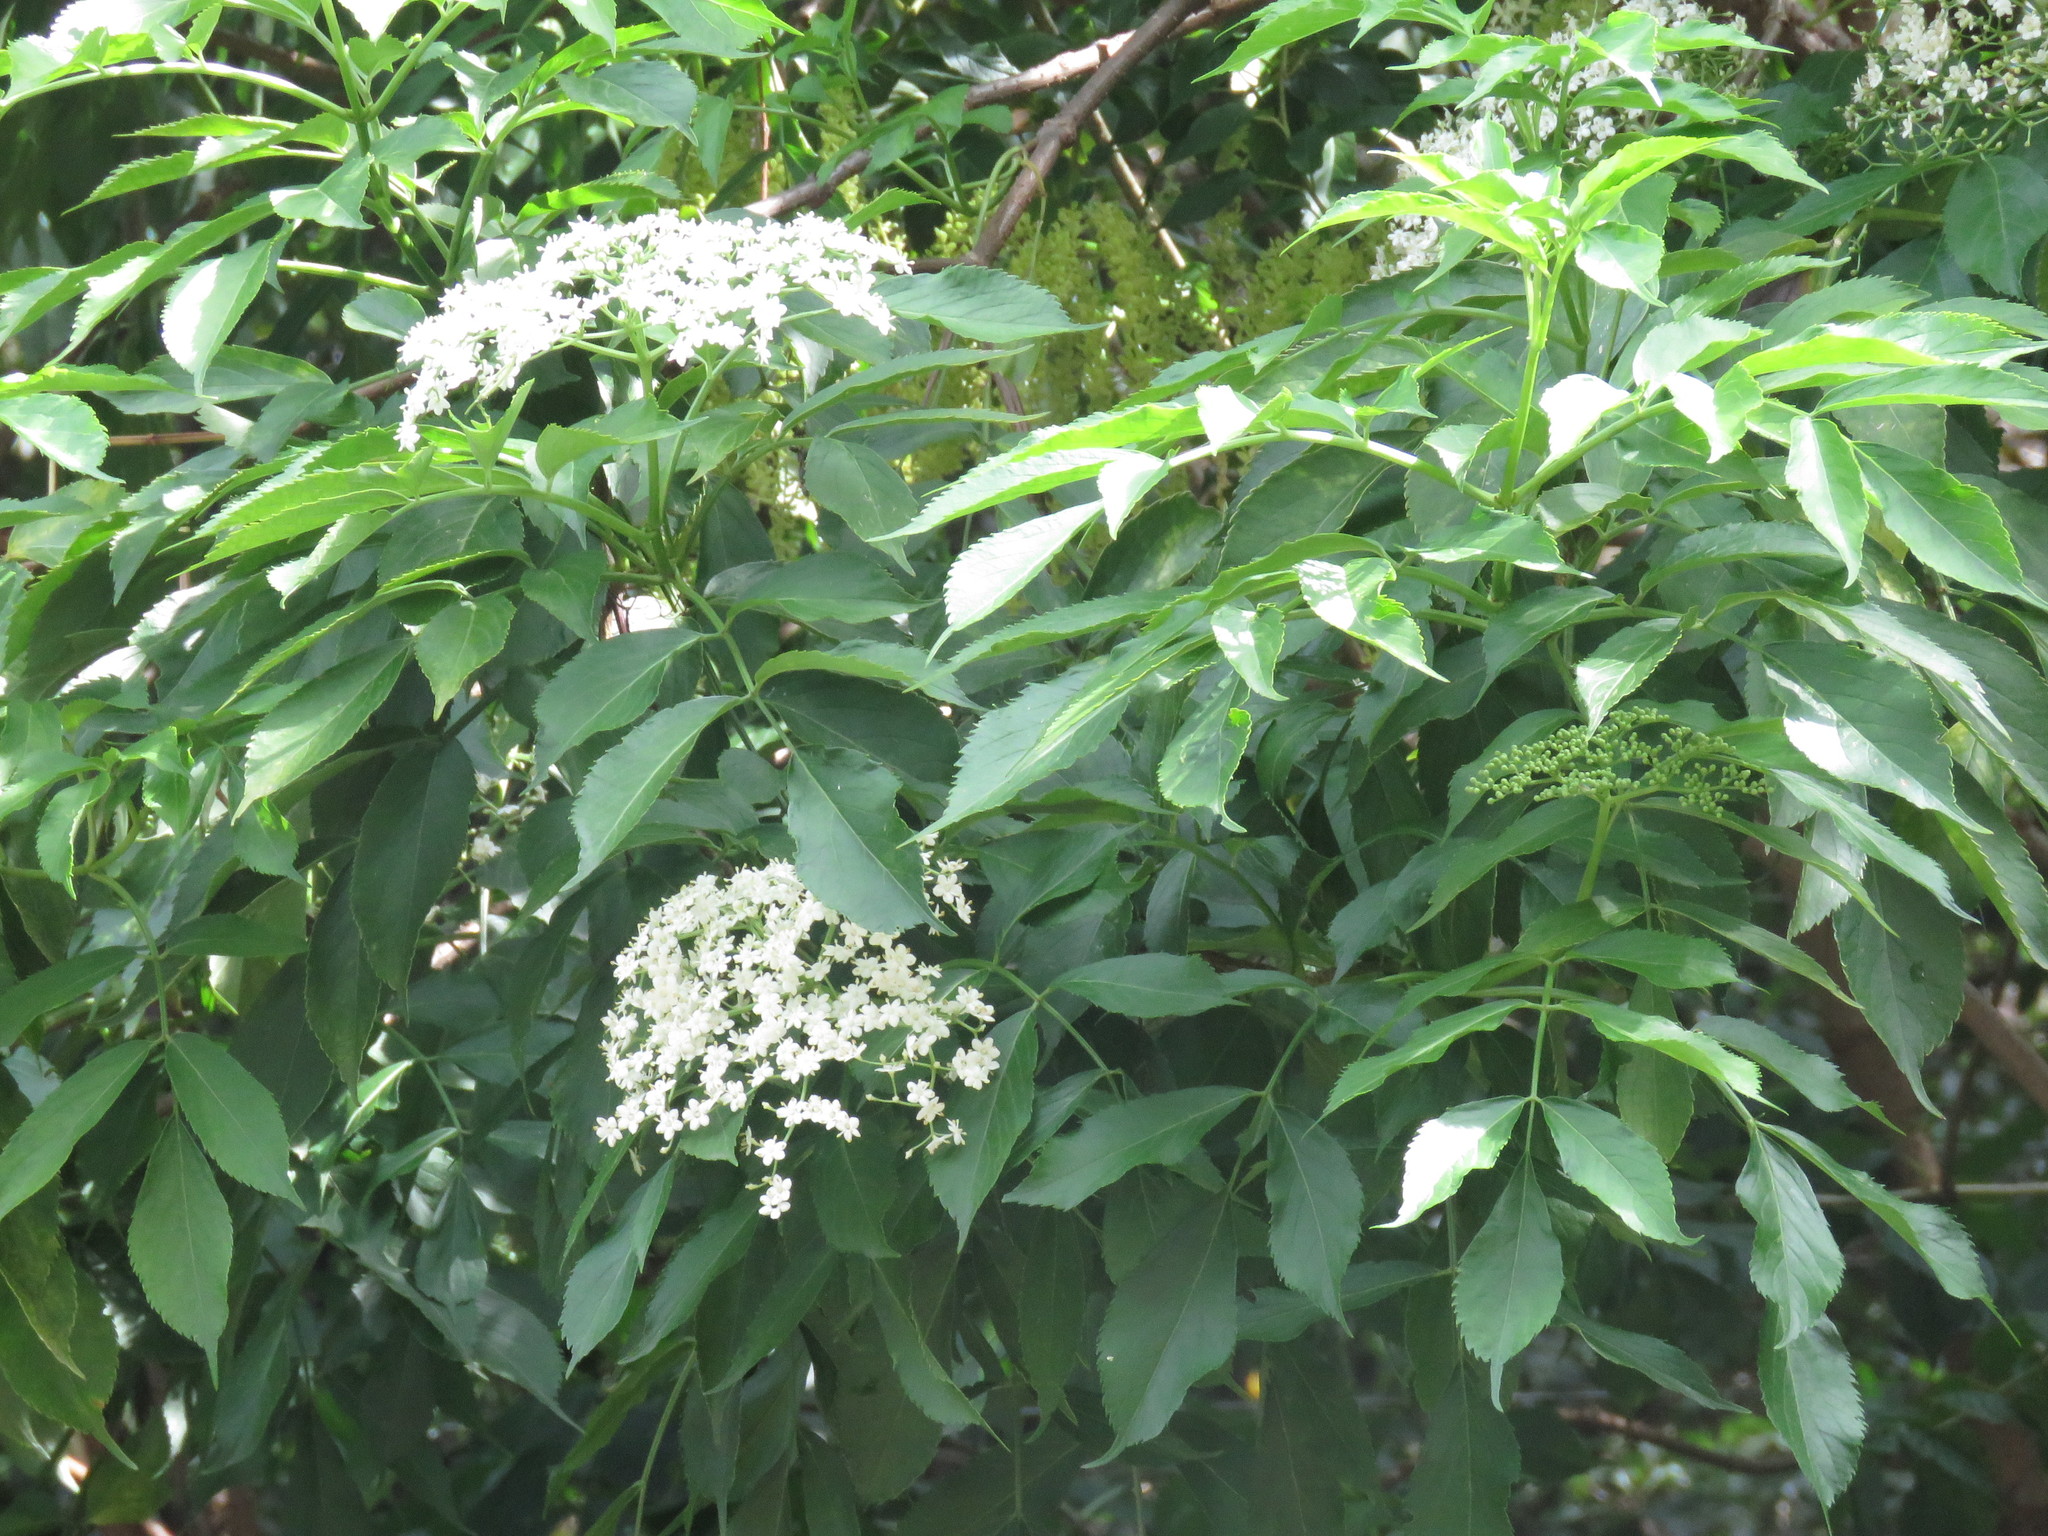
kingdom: Plantae
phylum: Tracheophyta
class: Magnoliopsida
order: Dipsacales
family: Viburnaceae
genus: Sambucus
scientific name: Sambucus nigra
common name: Elder
